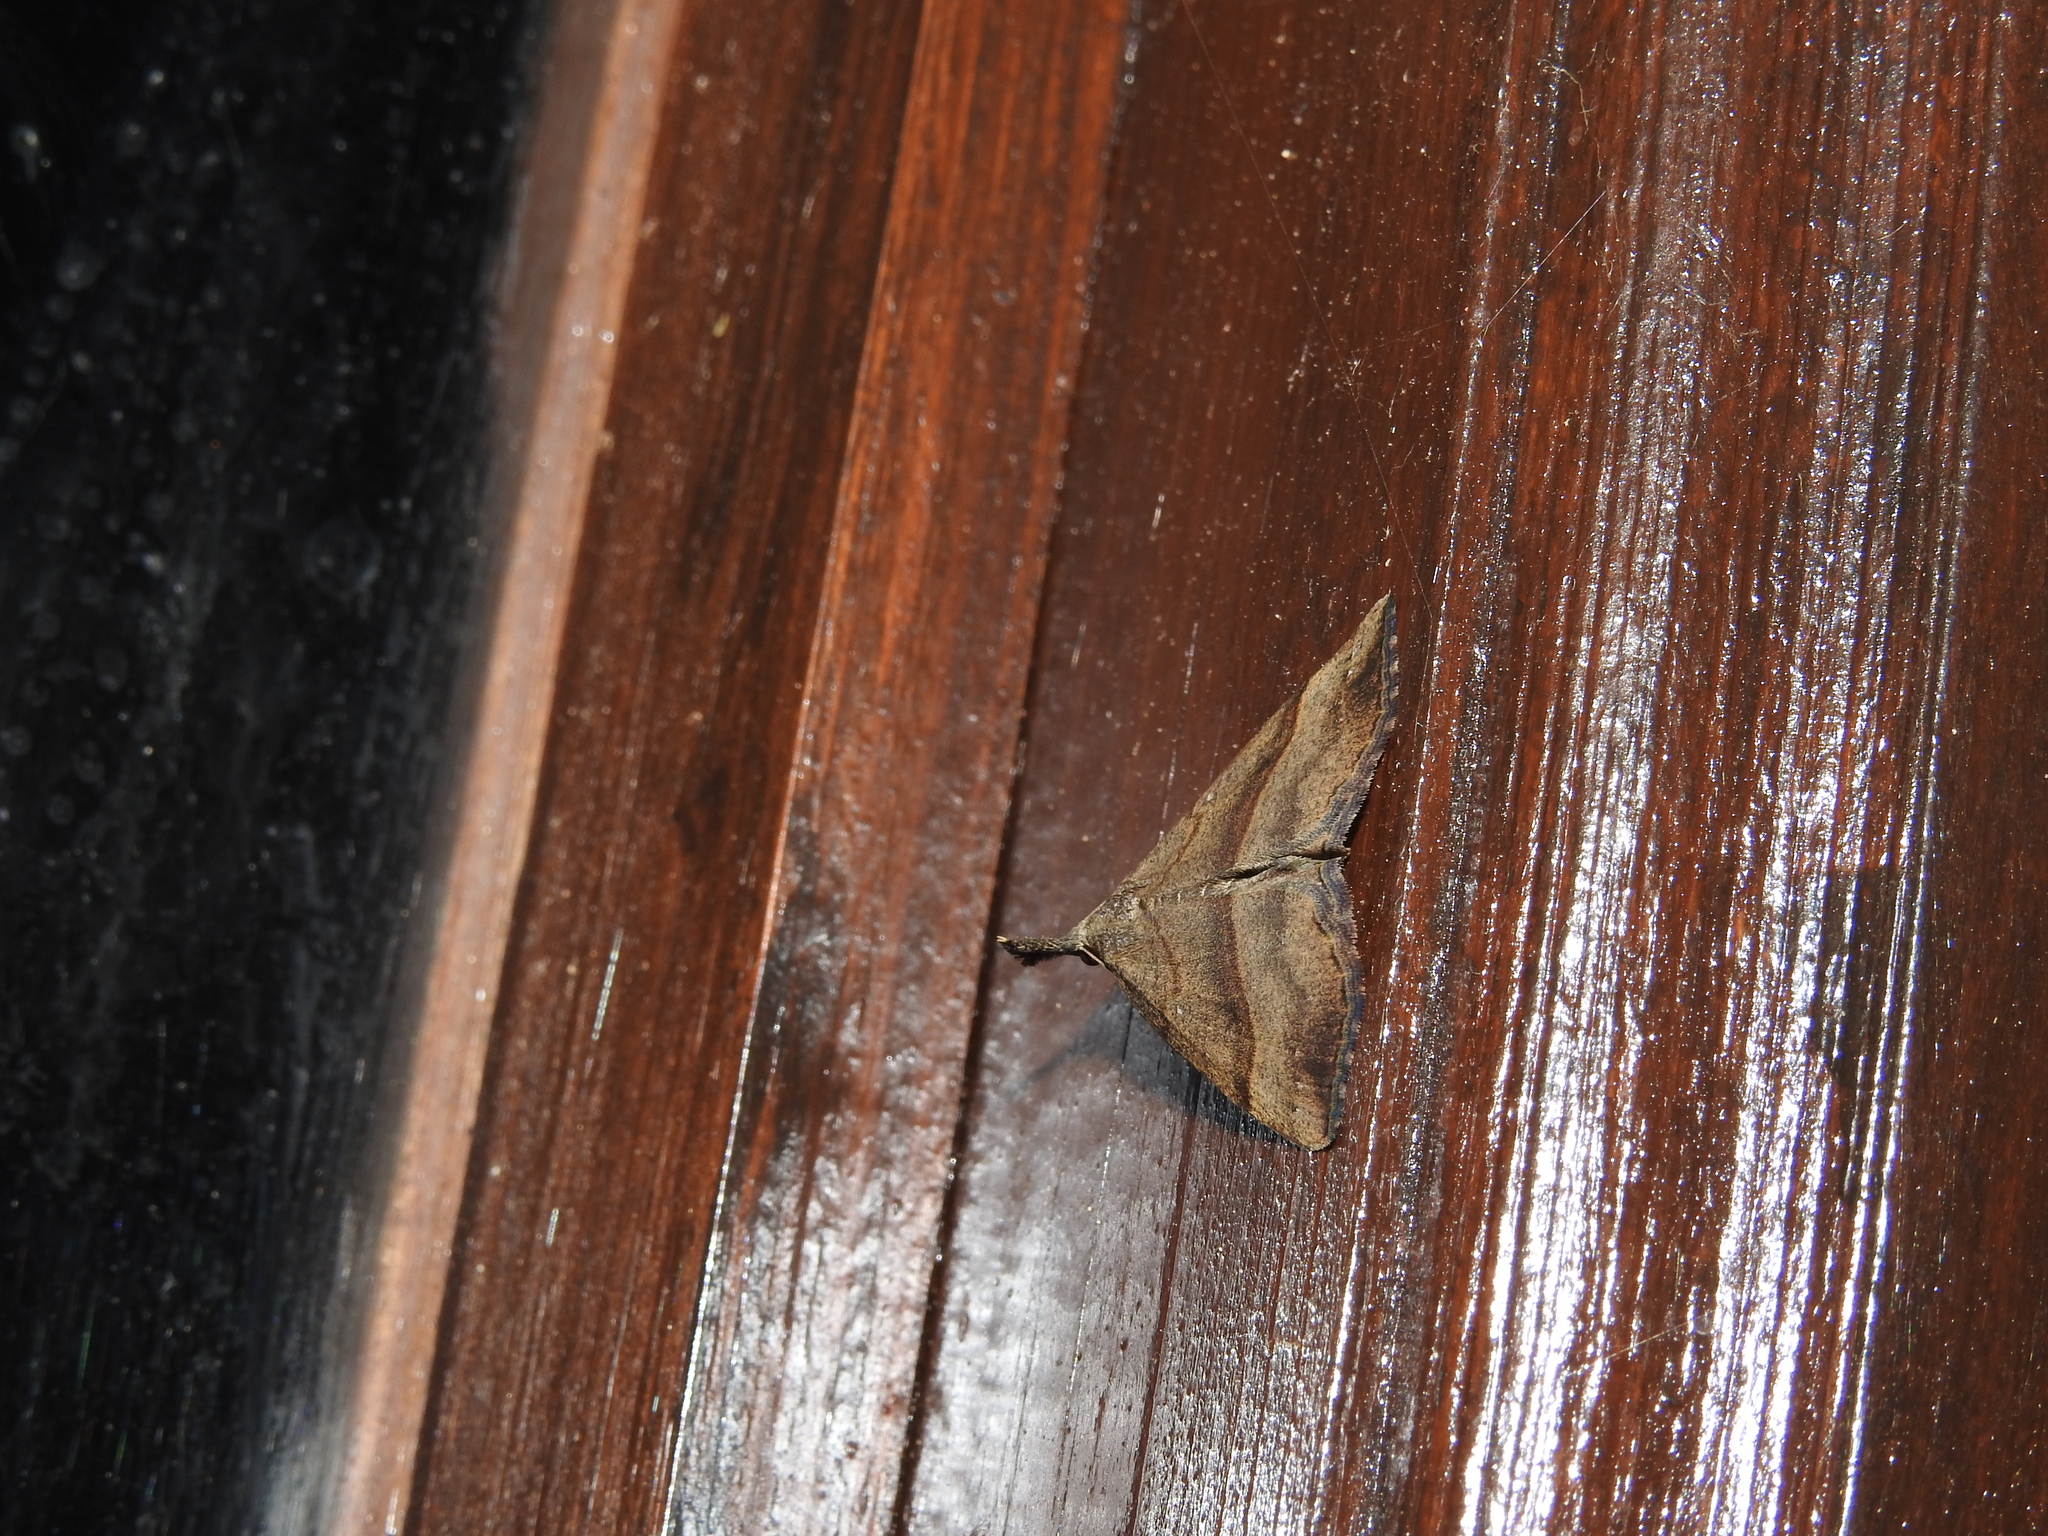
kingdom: Animalia
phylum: Arthropoda
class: Insecta
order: Lepidoptera
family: Erebidae
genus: Hypena
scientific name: Hypena proboscidalis
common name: Snout
